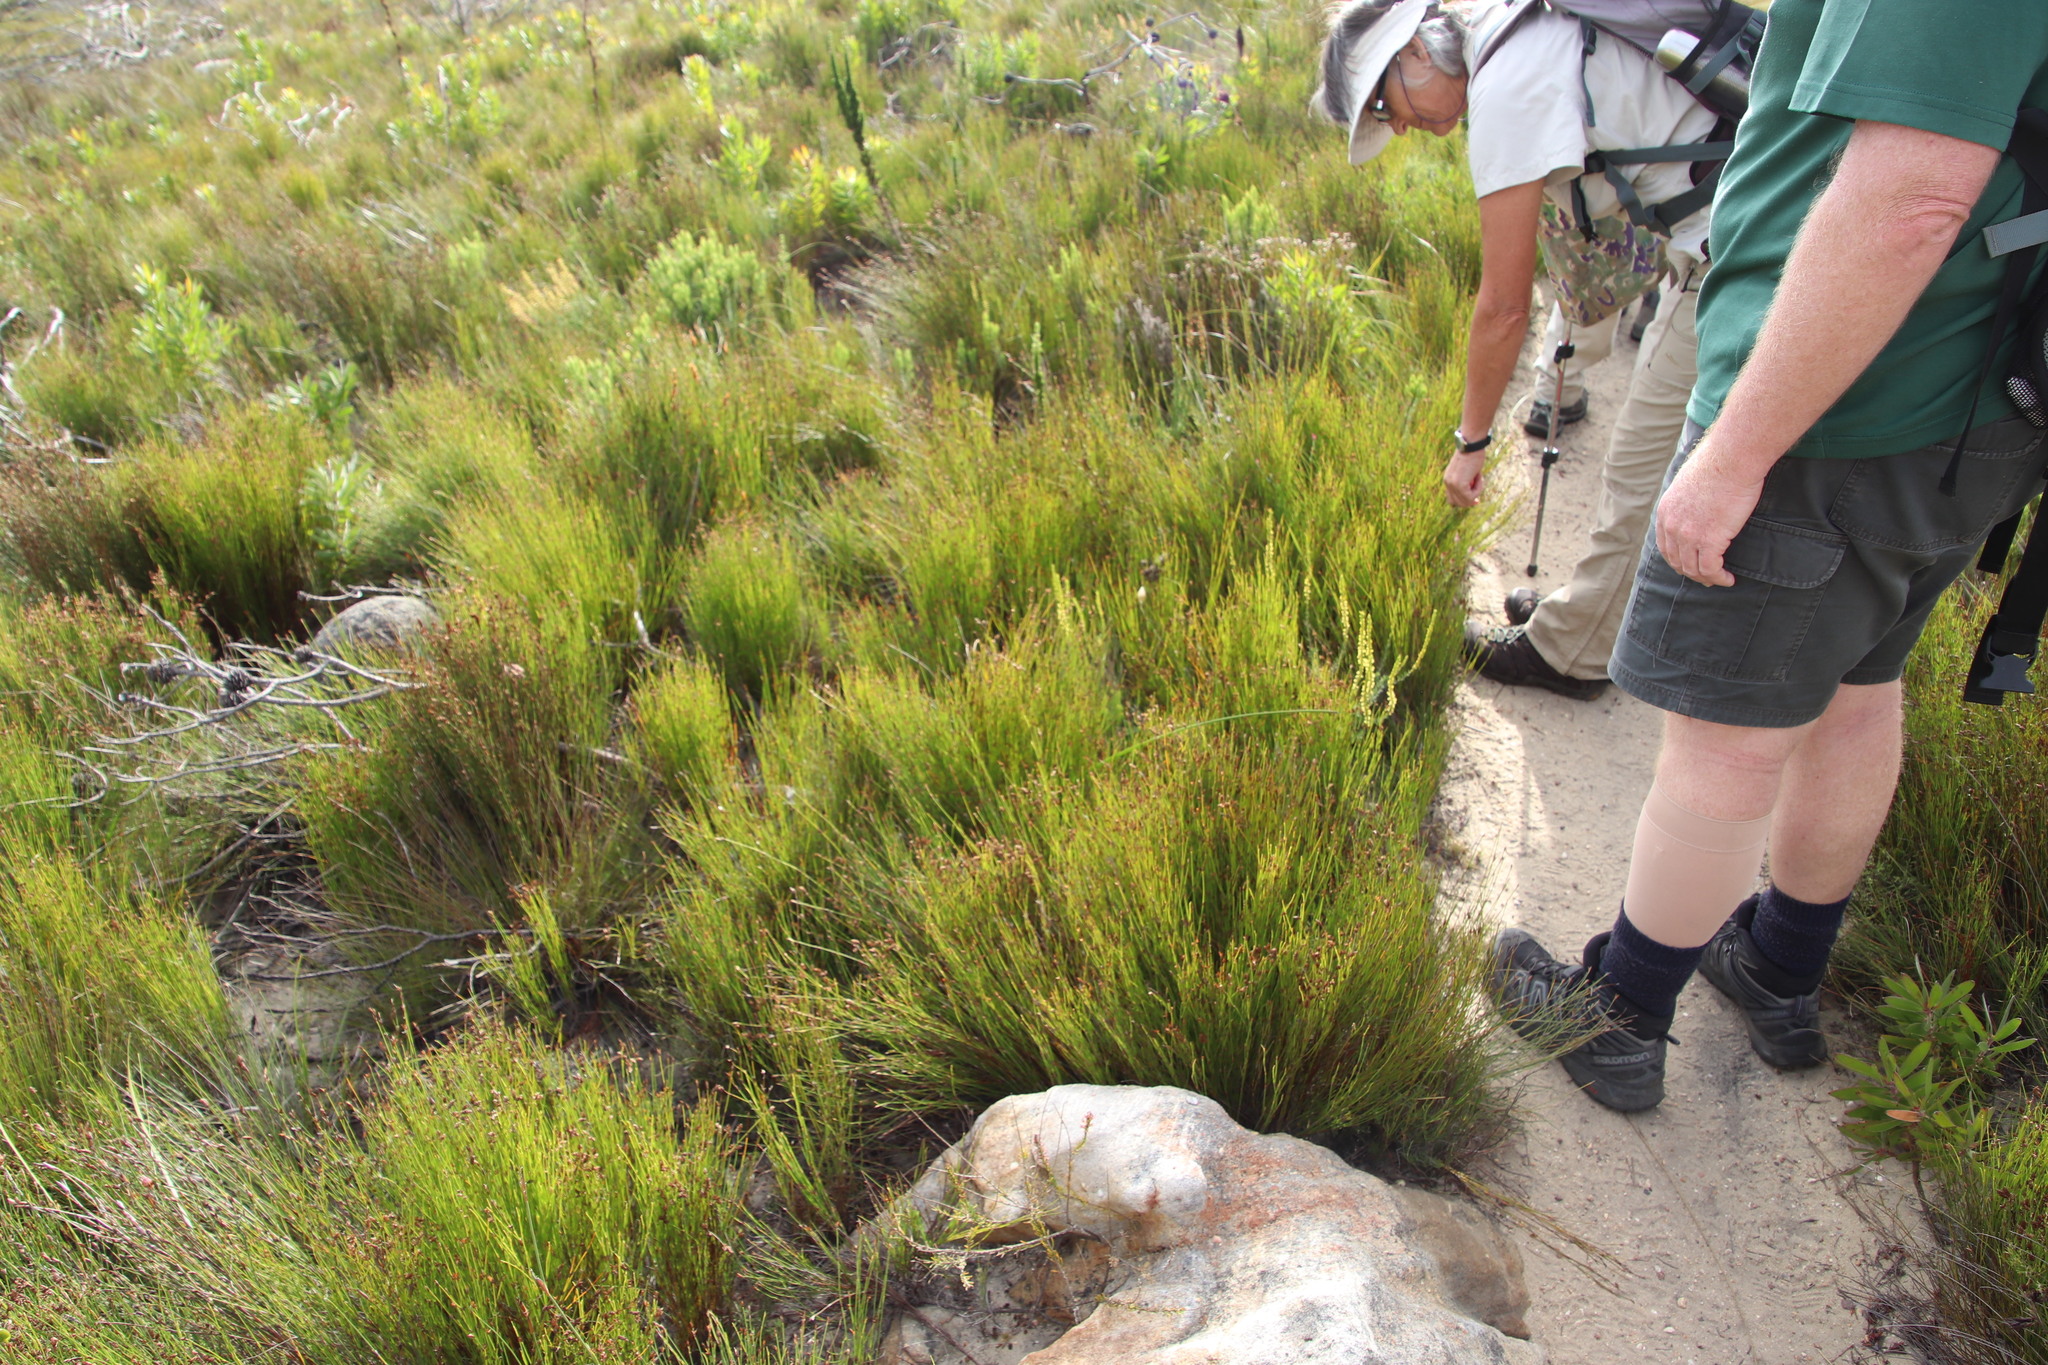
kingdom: Plantae
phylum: Tracheophyta
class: Liliopsida
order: Poales
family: Restionaceae
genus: Mastersiella
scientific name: Mastersiella digitata
